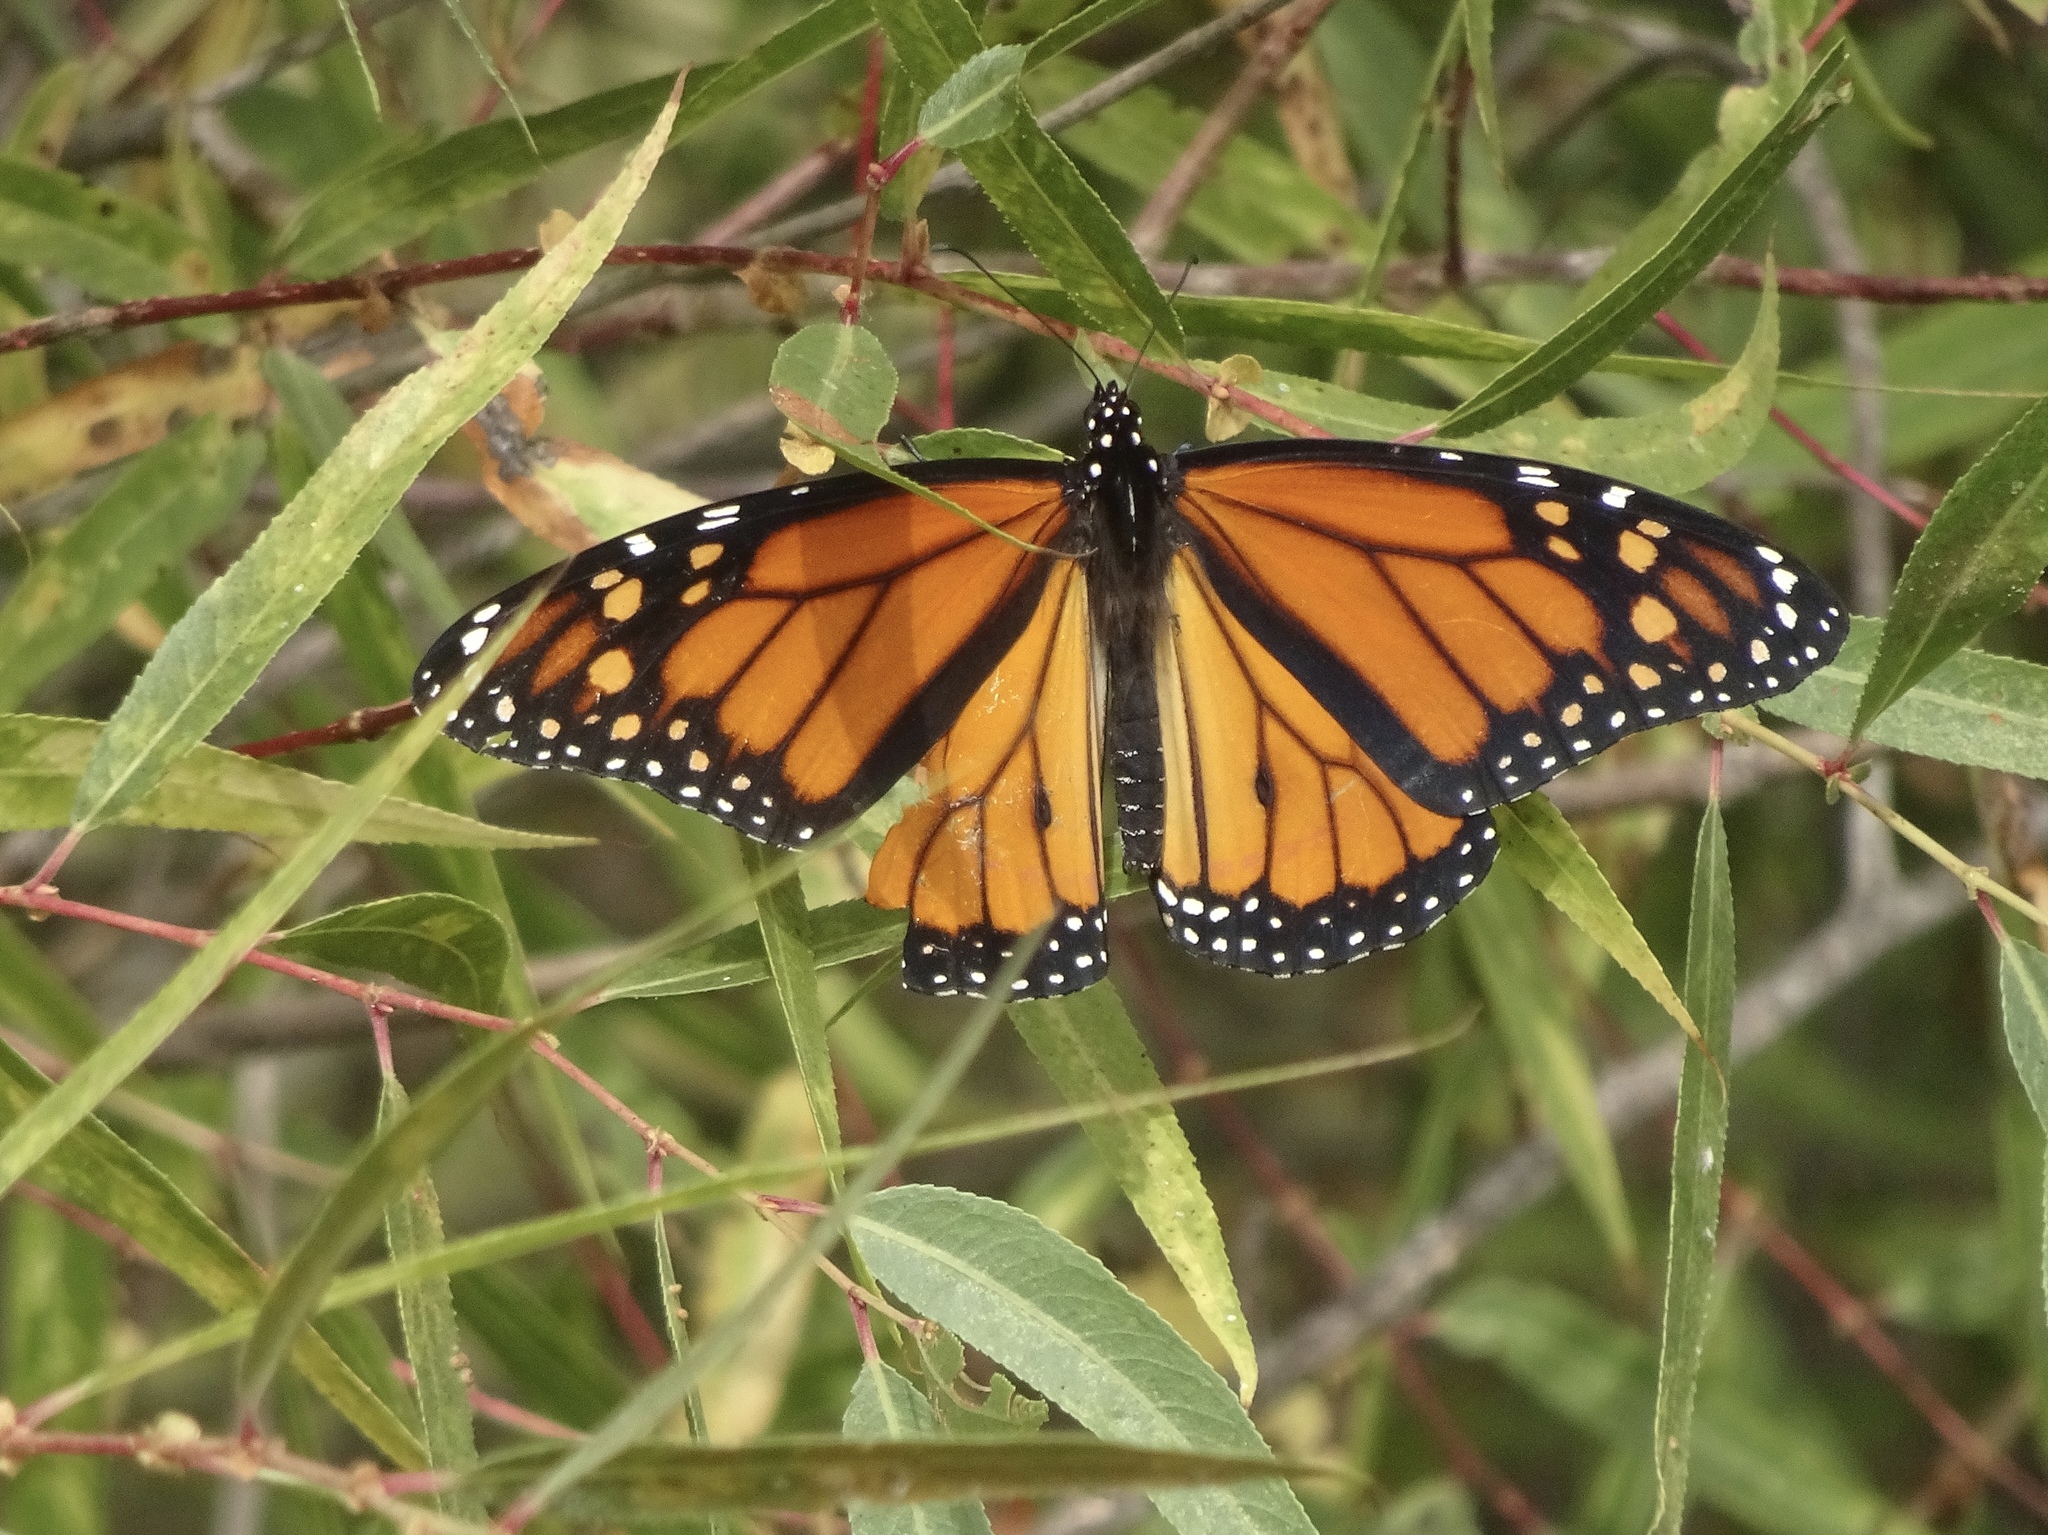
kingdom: Animalia
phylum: Arthropoda
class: Insecta
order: Lepidoptera
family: Nymphalidae
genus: Danaus
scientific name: Danaus plexippus
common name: Monarch
